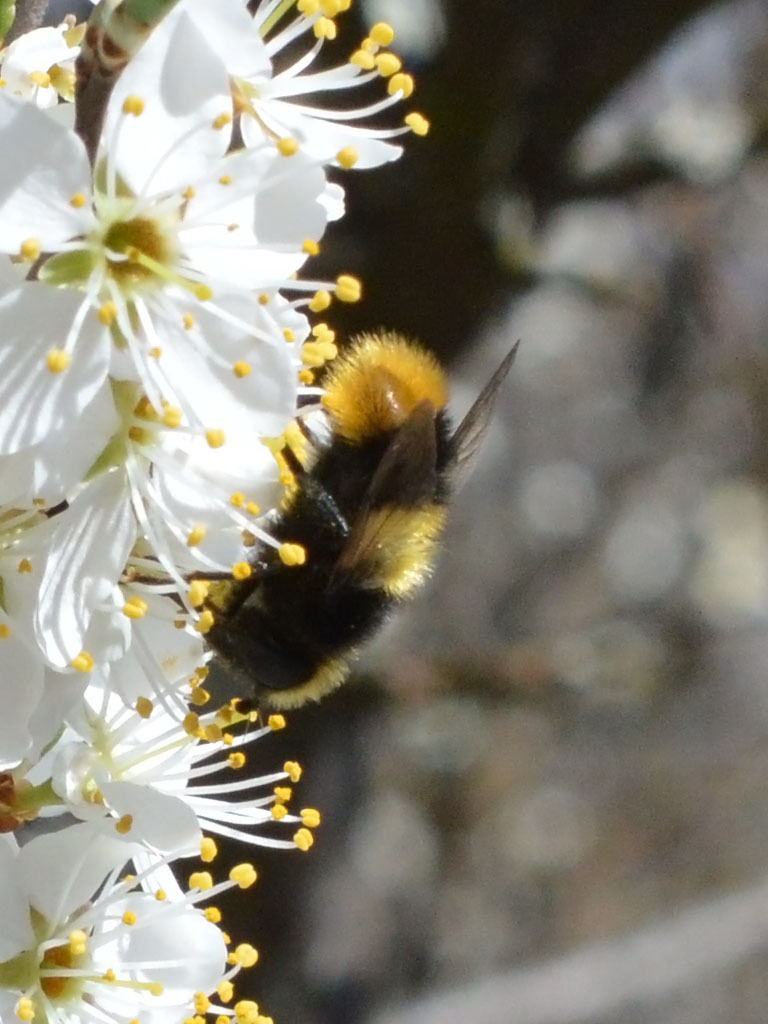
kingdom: Animalia
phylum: Arthropoda
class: Insecta
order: Diptera
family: Syrphidae
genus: Mallota
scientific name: Mallota fuciformis
